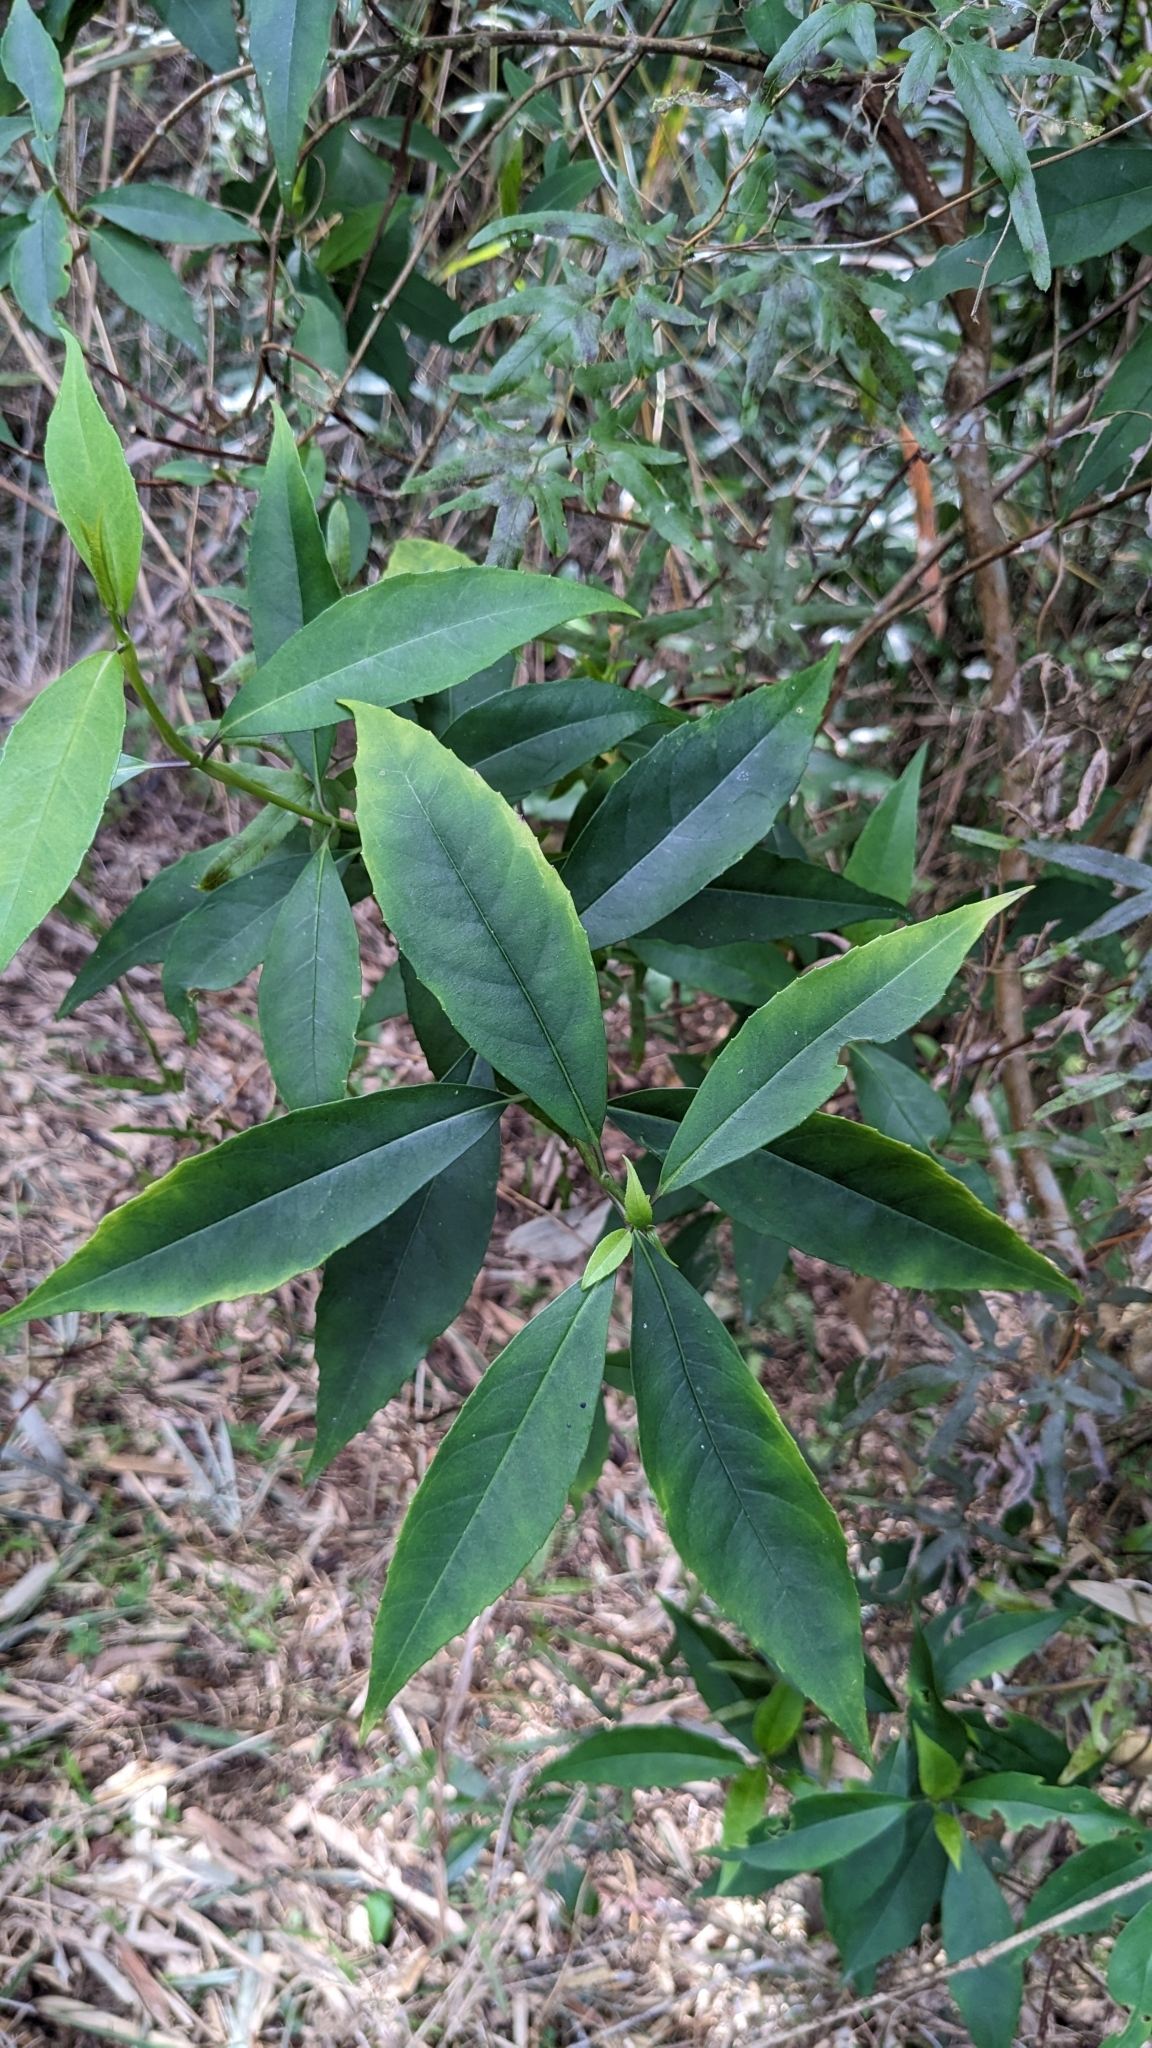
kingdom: Plantae
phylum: Tracheophyta
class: Magnoliopsida
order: Cornales
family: Hydrangeaceae
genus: Hydrangea
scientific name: Hydrangea chinensis
